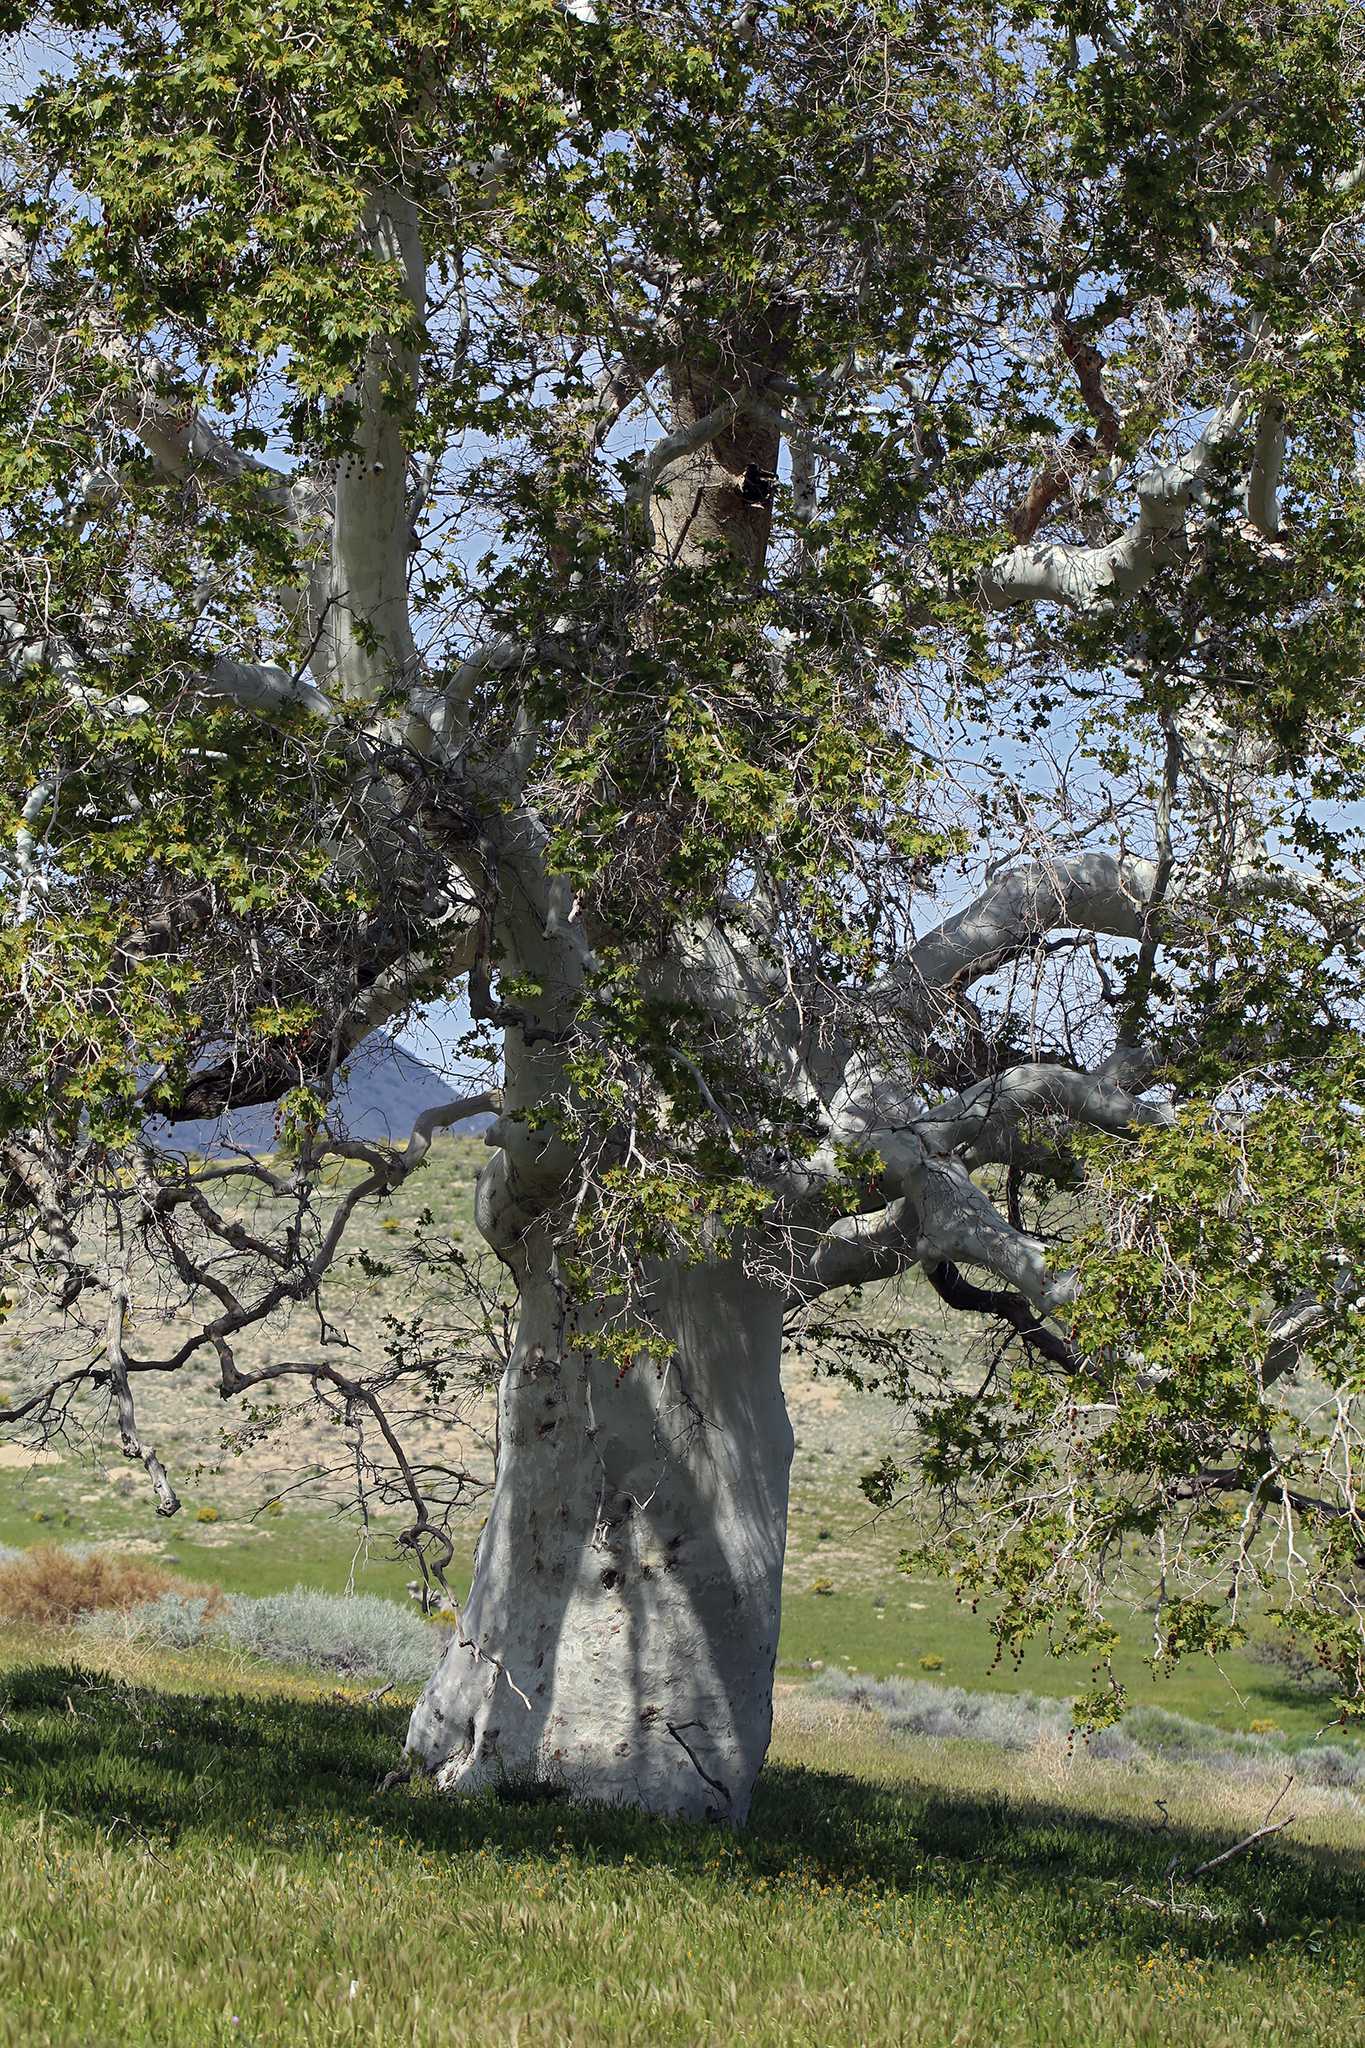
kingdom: Plantae
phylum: Tracheophyta
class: Magnoliopsida
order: Proteales
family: Platanaceae
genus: Platanus
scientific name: Platanus racemosa
